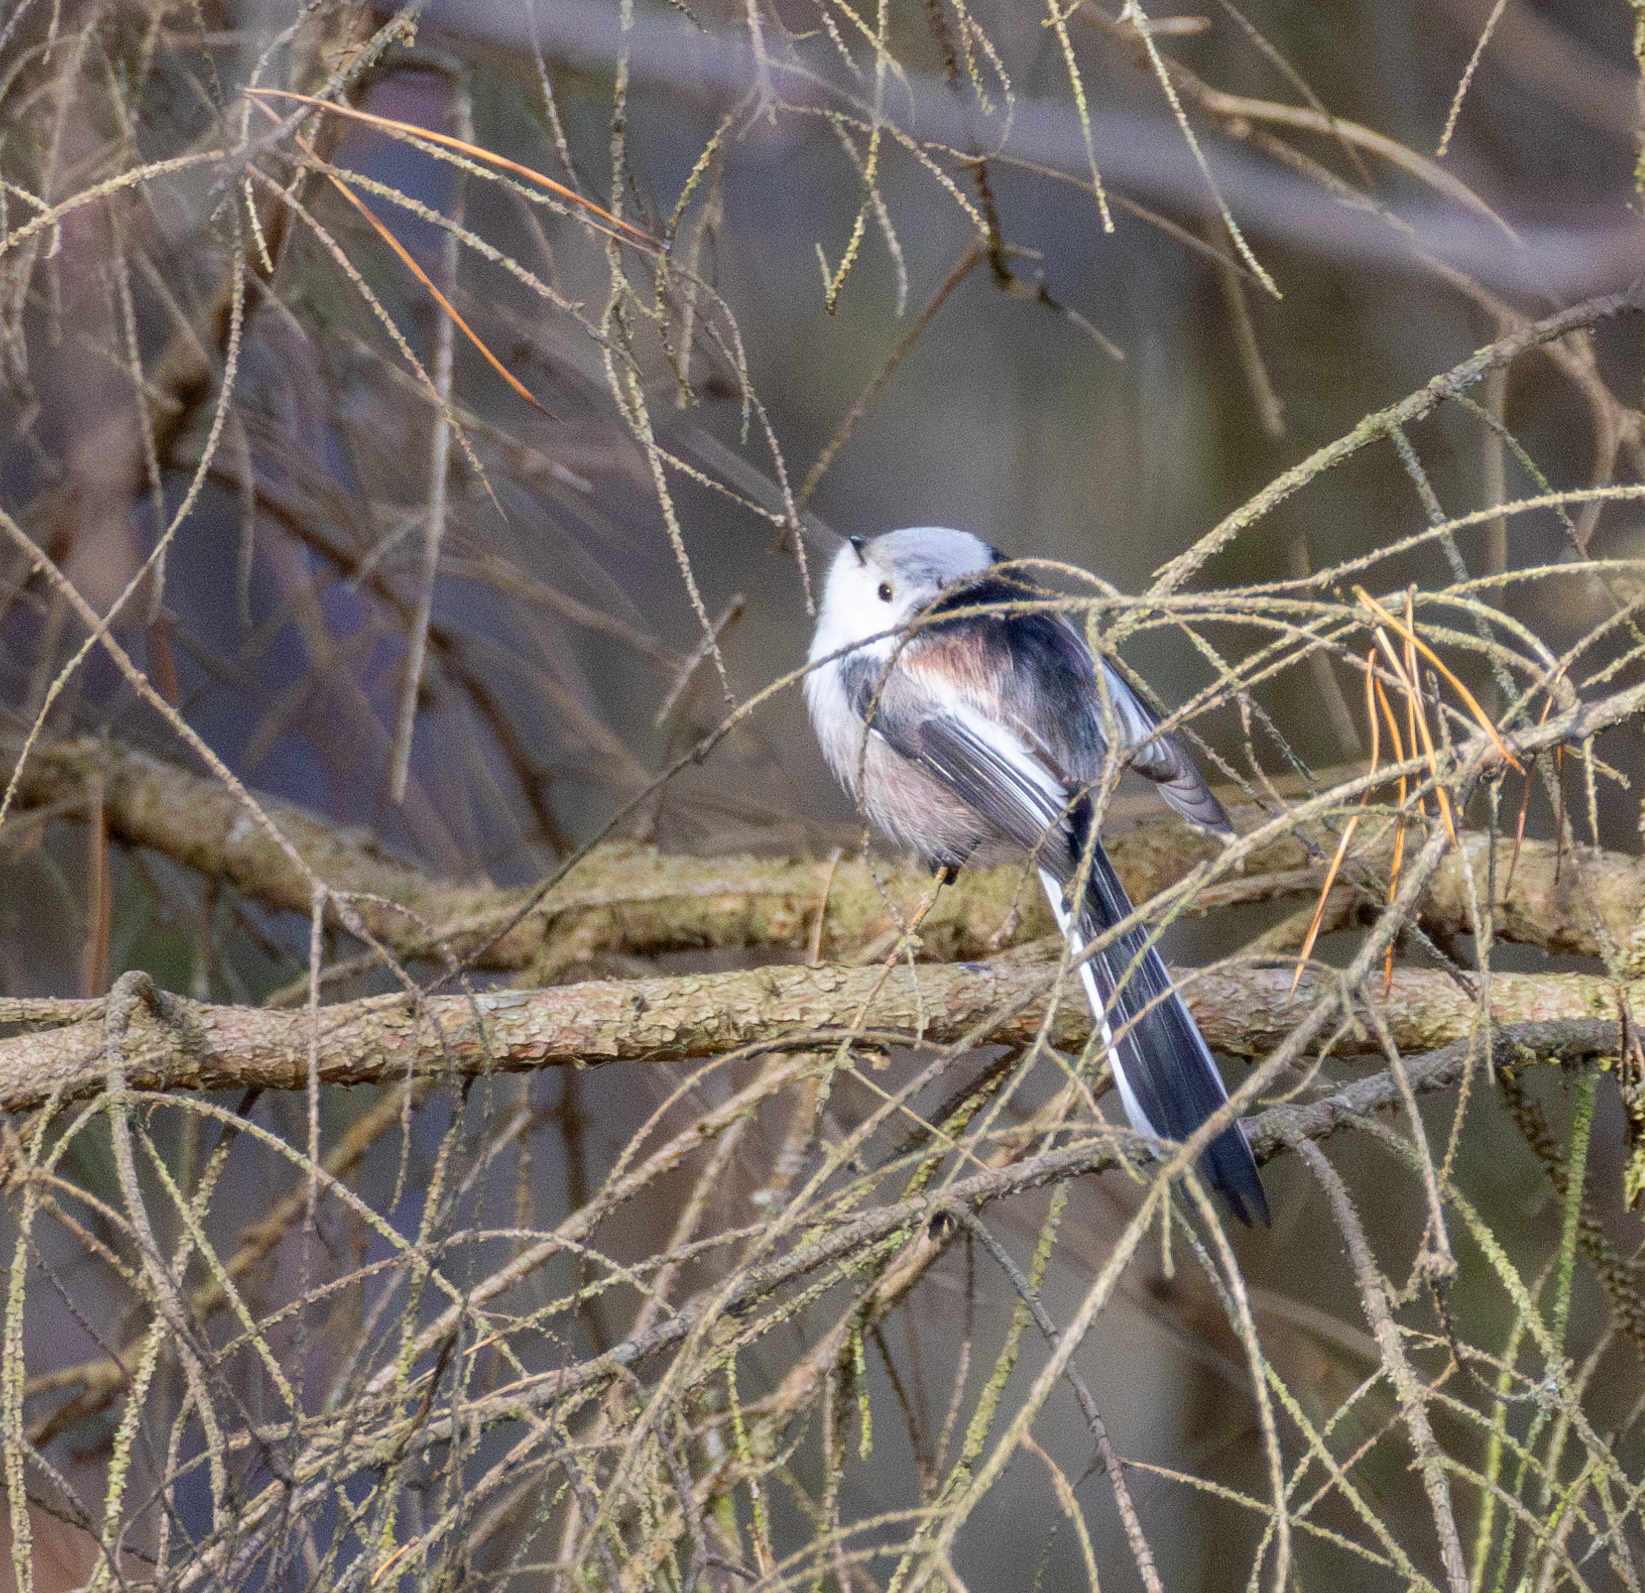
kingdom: Animalia
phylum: Chordata
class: Aves
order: Passeriformes
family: Aegithalidae
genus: Aegithalos
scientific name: Aegithalos caudatus
